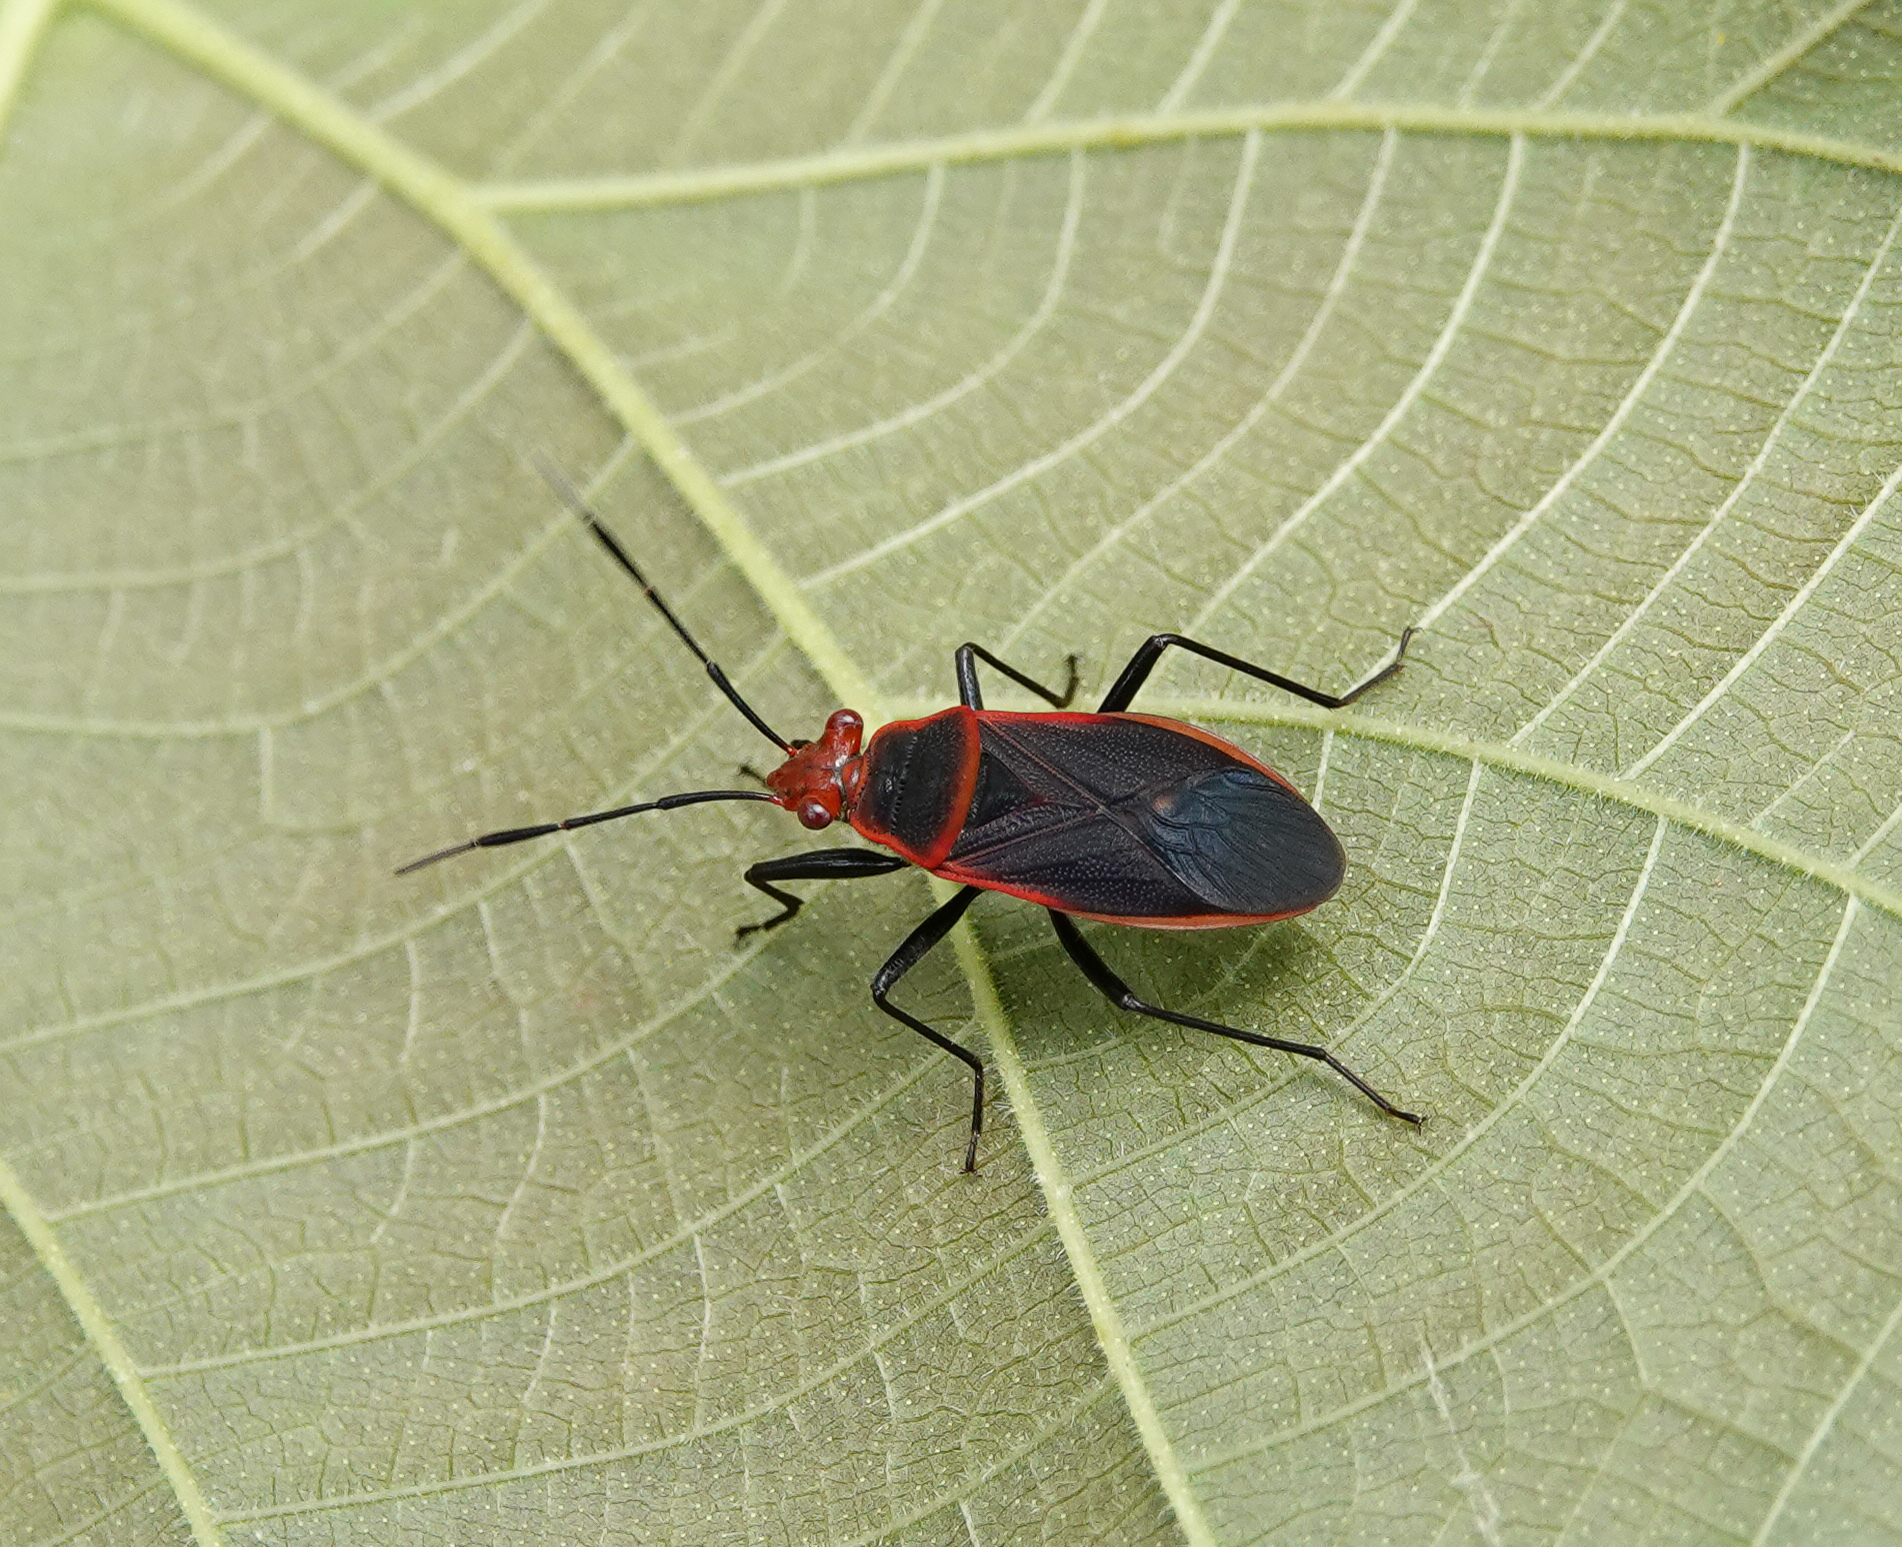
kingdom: Animalia
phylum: Arthropoda
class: Insecta
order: Hemiptera
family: Pyrrhocoridae
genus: Ectatops
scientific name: Ectatops
